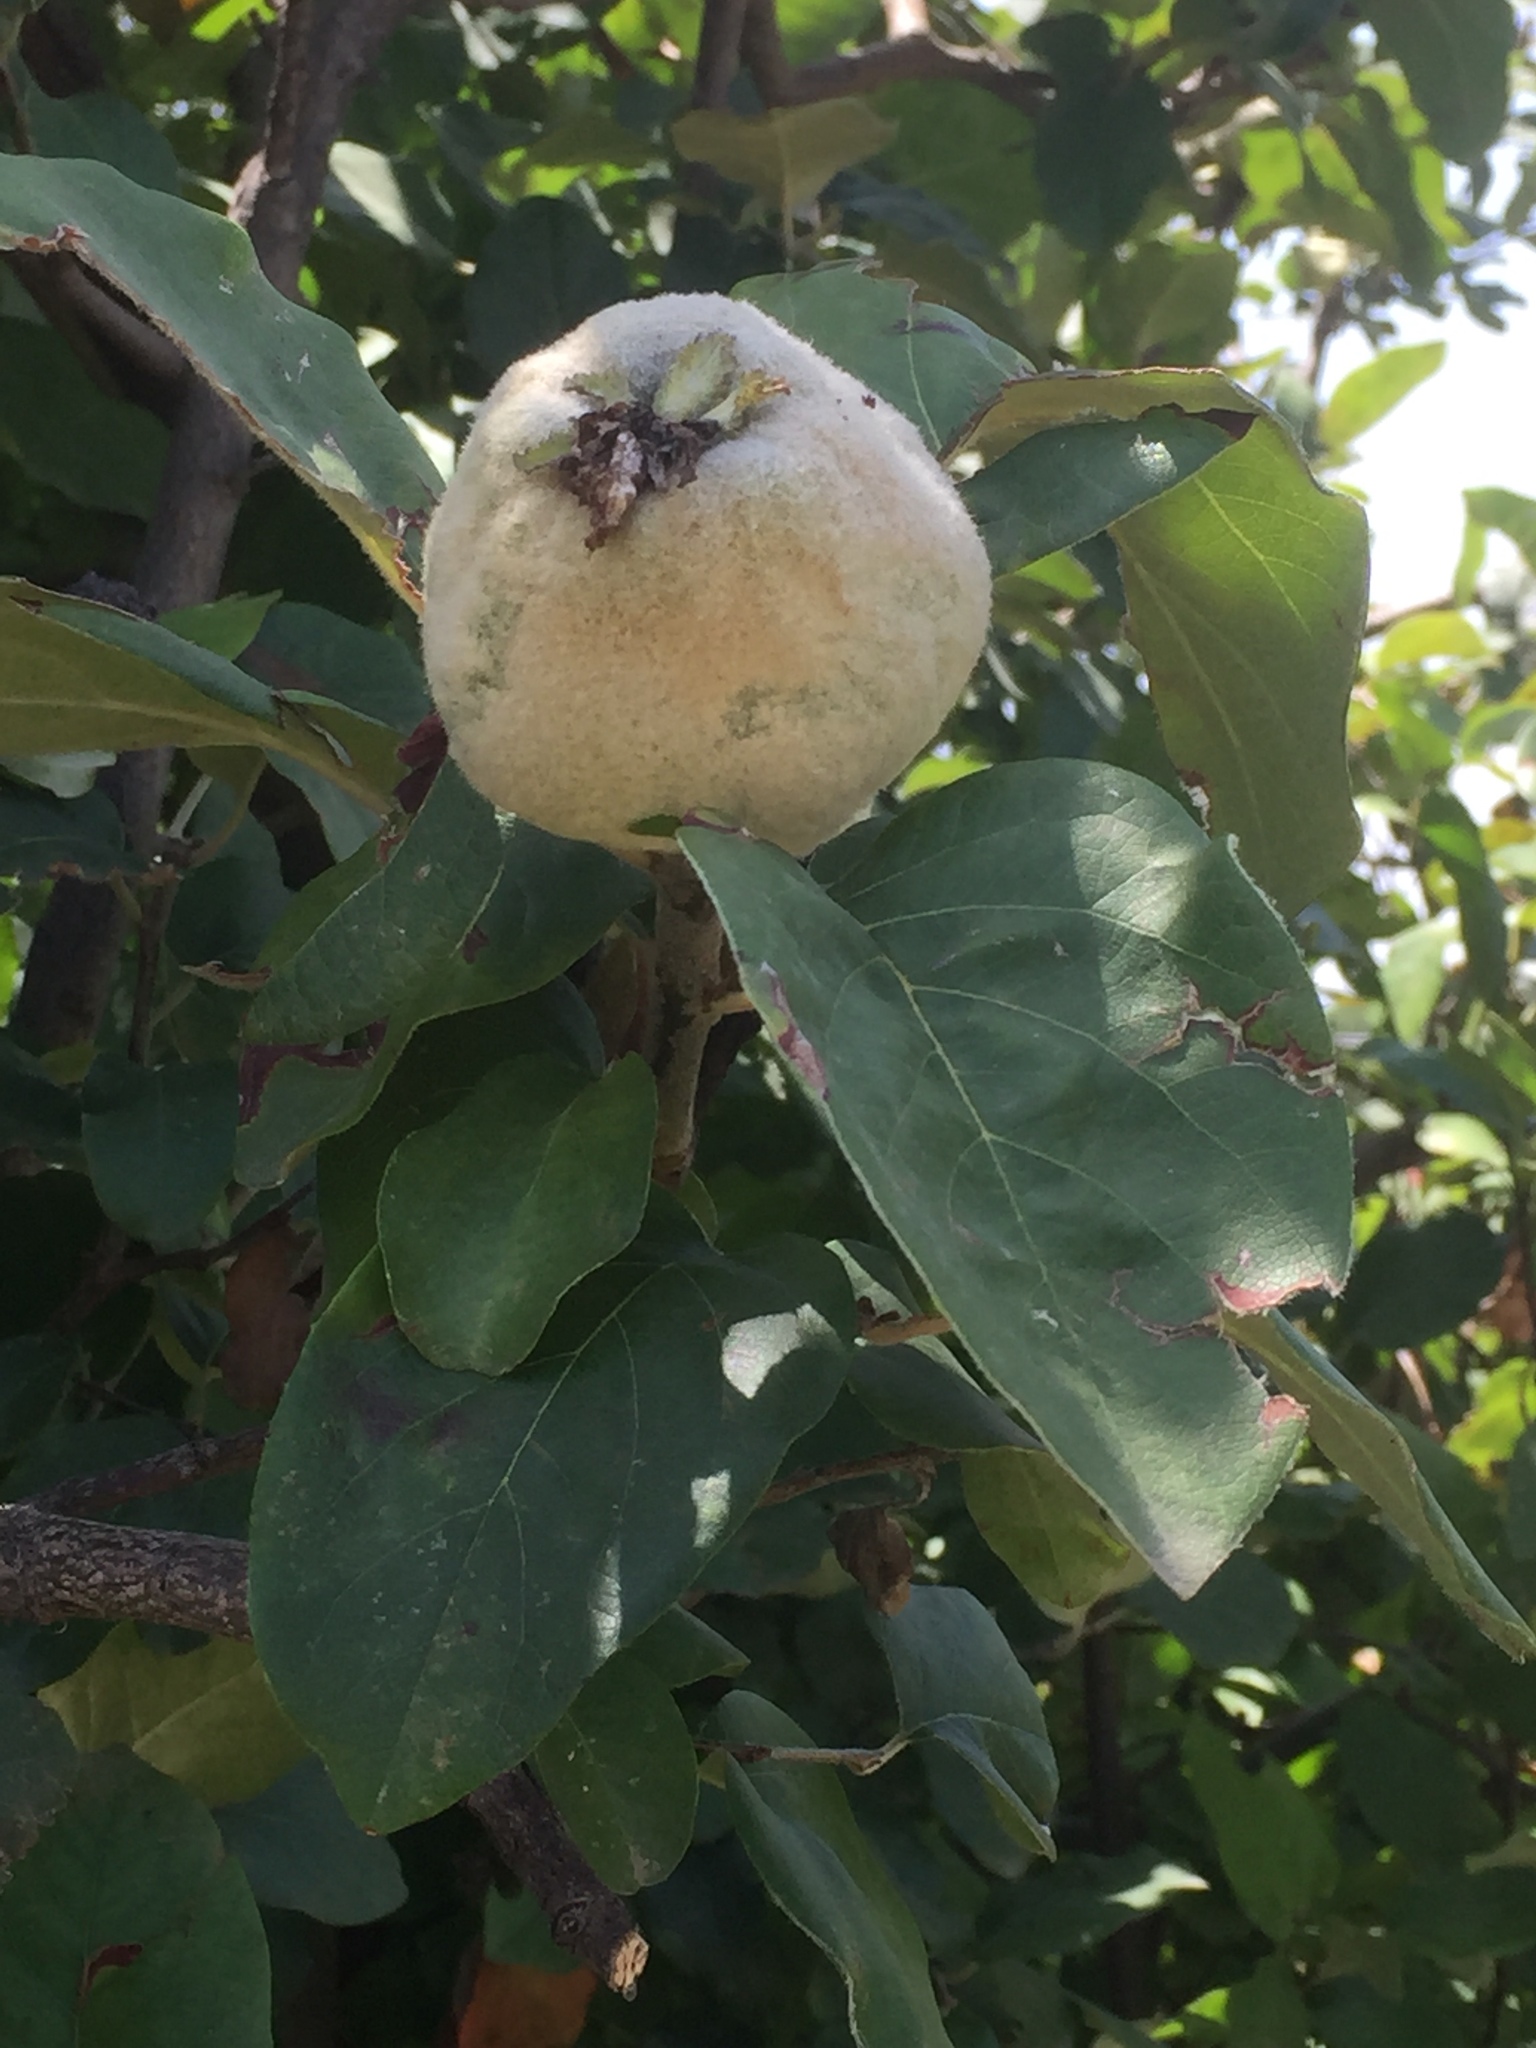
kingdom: Plantae
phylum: Tracheophyta
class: Magnoliopsida
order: Rosales
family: Rosaceae
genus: Cydonia
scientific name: Cydonia oblonga
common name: Quince
